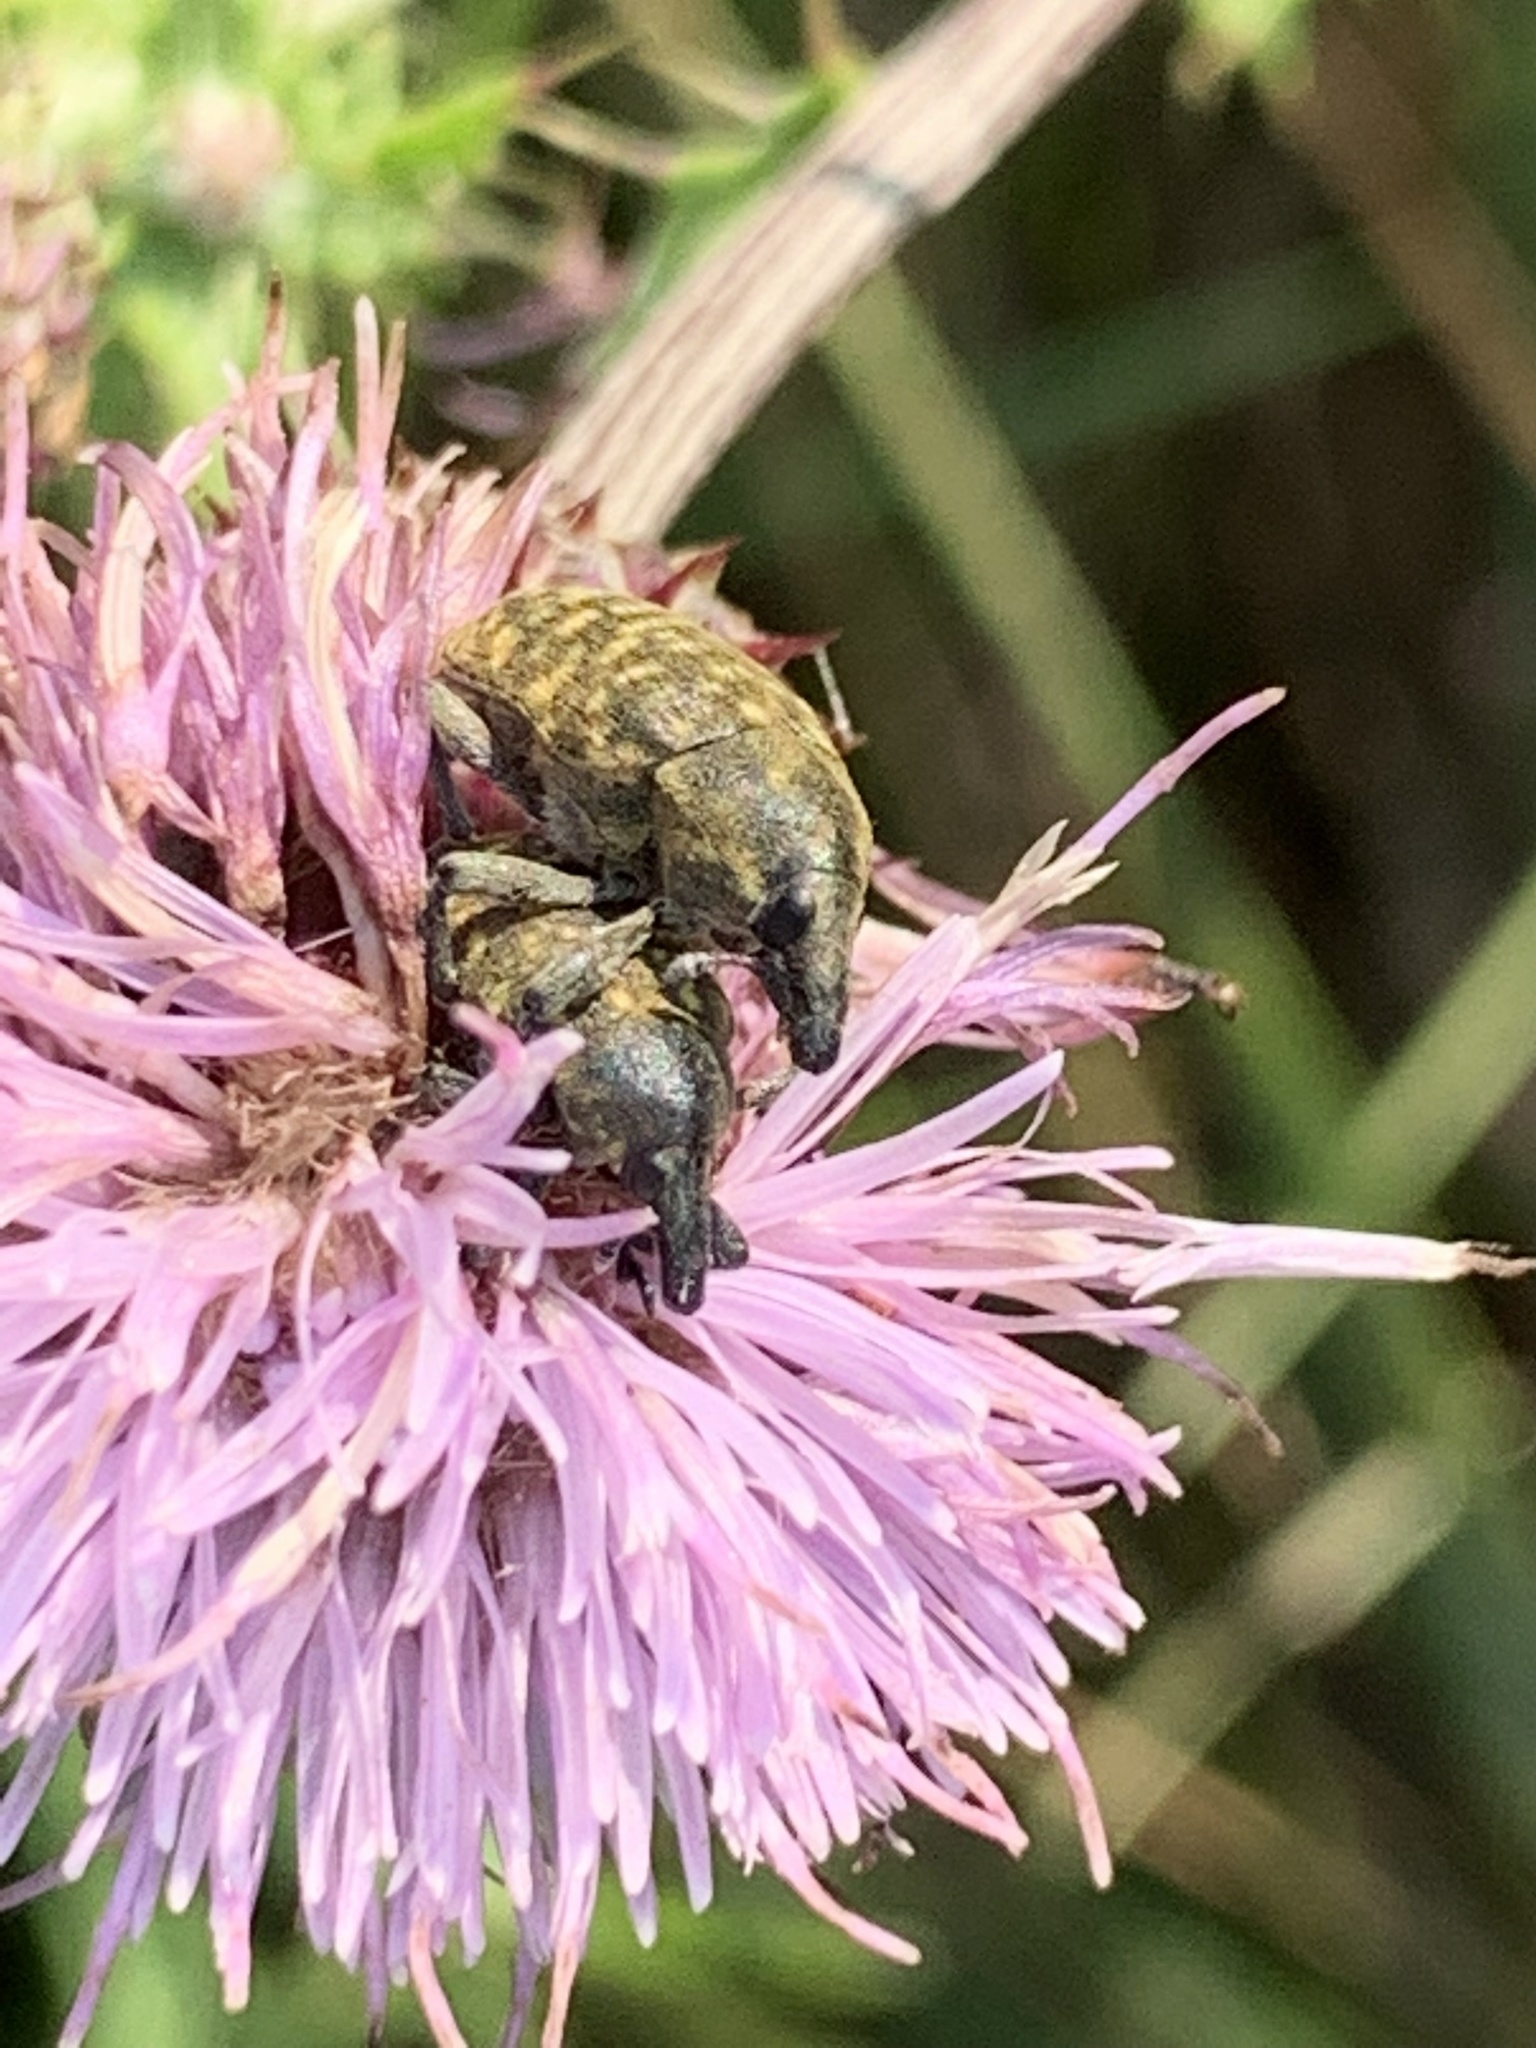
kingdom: Animalia
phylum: Arthropoda
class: Insecta
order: Coleoptera
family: Curculionidae
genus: Larinus
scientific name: Larinus turbinatus
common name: Weevil
